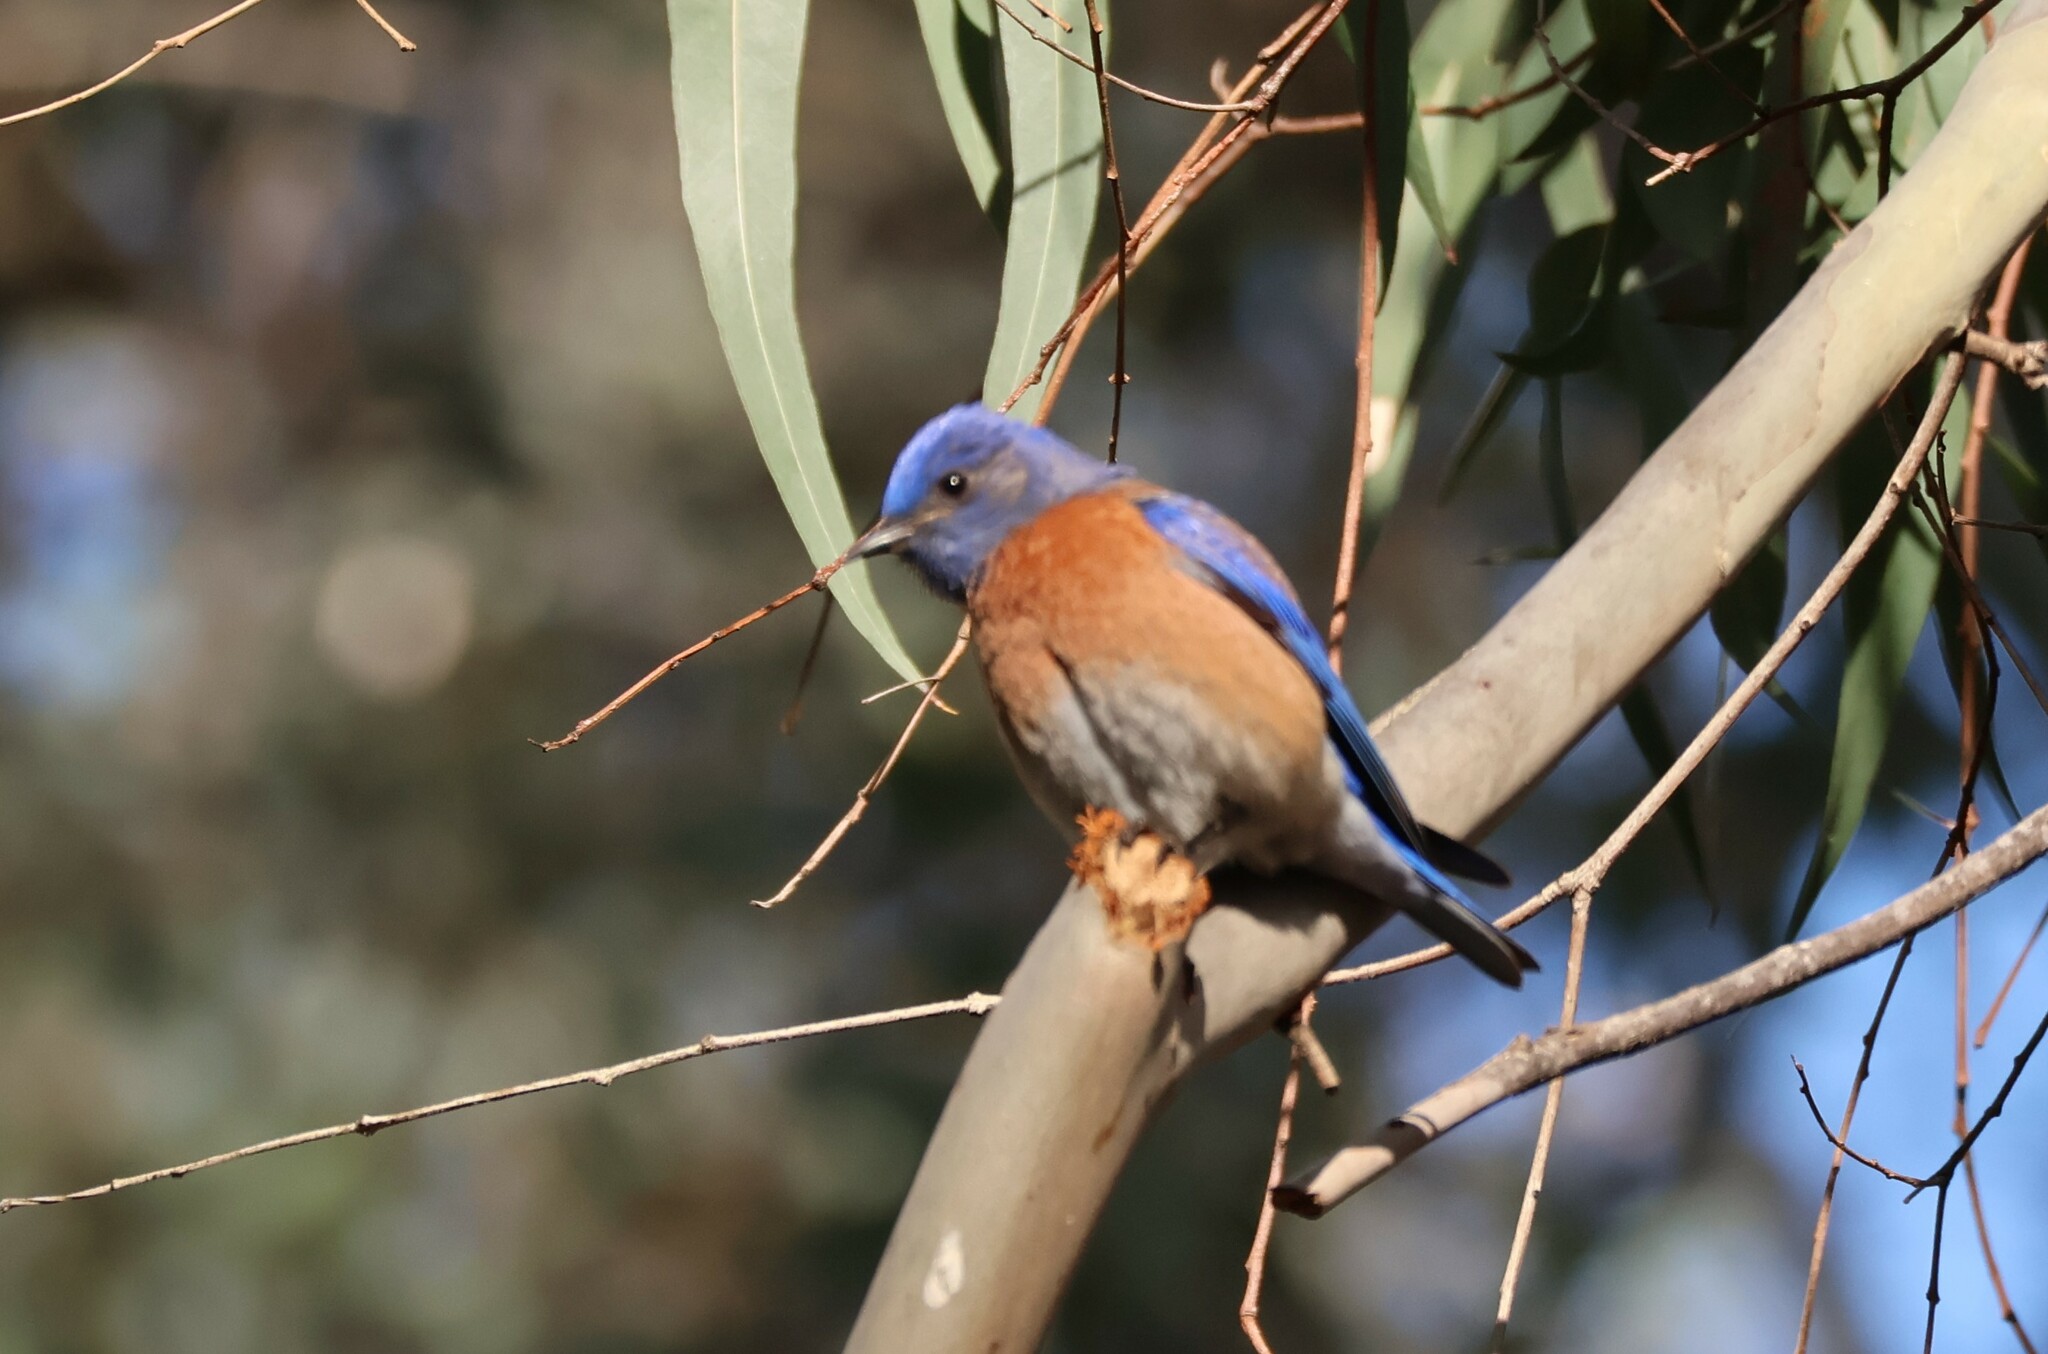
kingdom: Animalia
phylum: Chordata
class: Aves
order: Passeriformes
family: Turdidae
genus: Sialia
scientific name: Sialia mexicana
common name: Western bluebird
